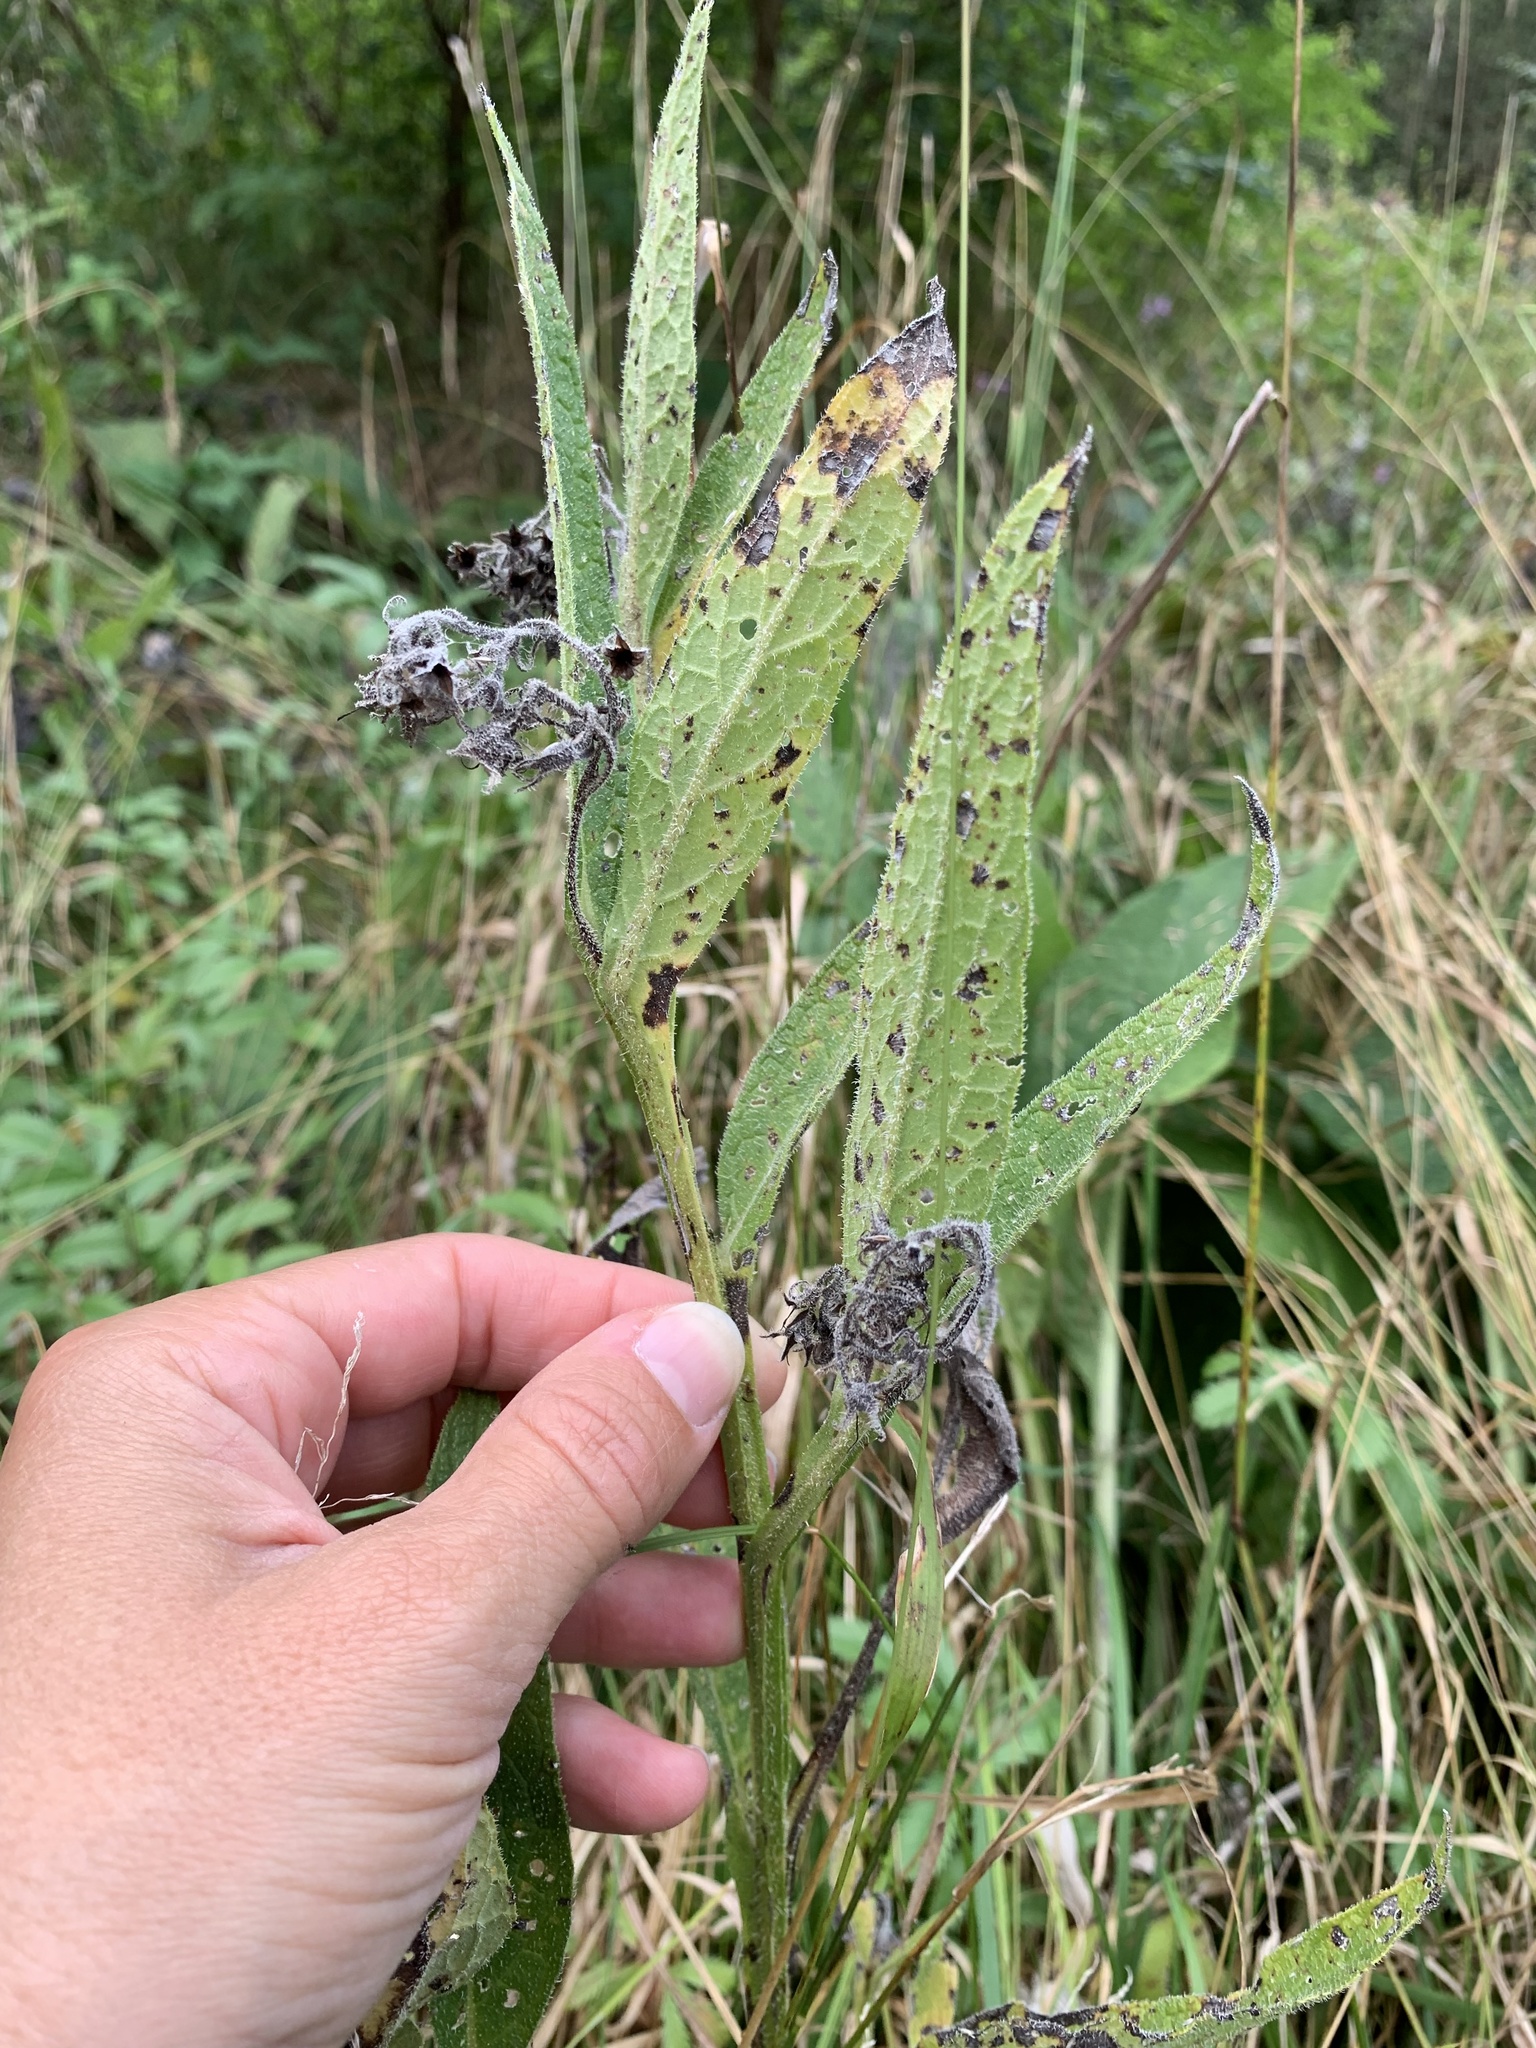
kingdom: Plantae
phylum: Tracheophyta
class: Magnoliopsida
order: Boraginales
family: Boraginaceae
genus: Symphytum
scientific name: Symphytum officinale
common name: Common comfrey
